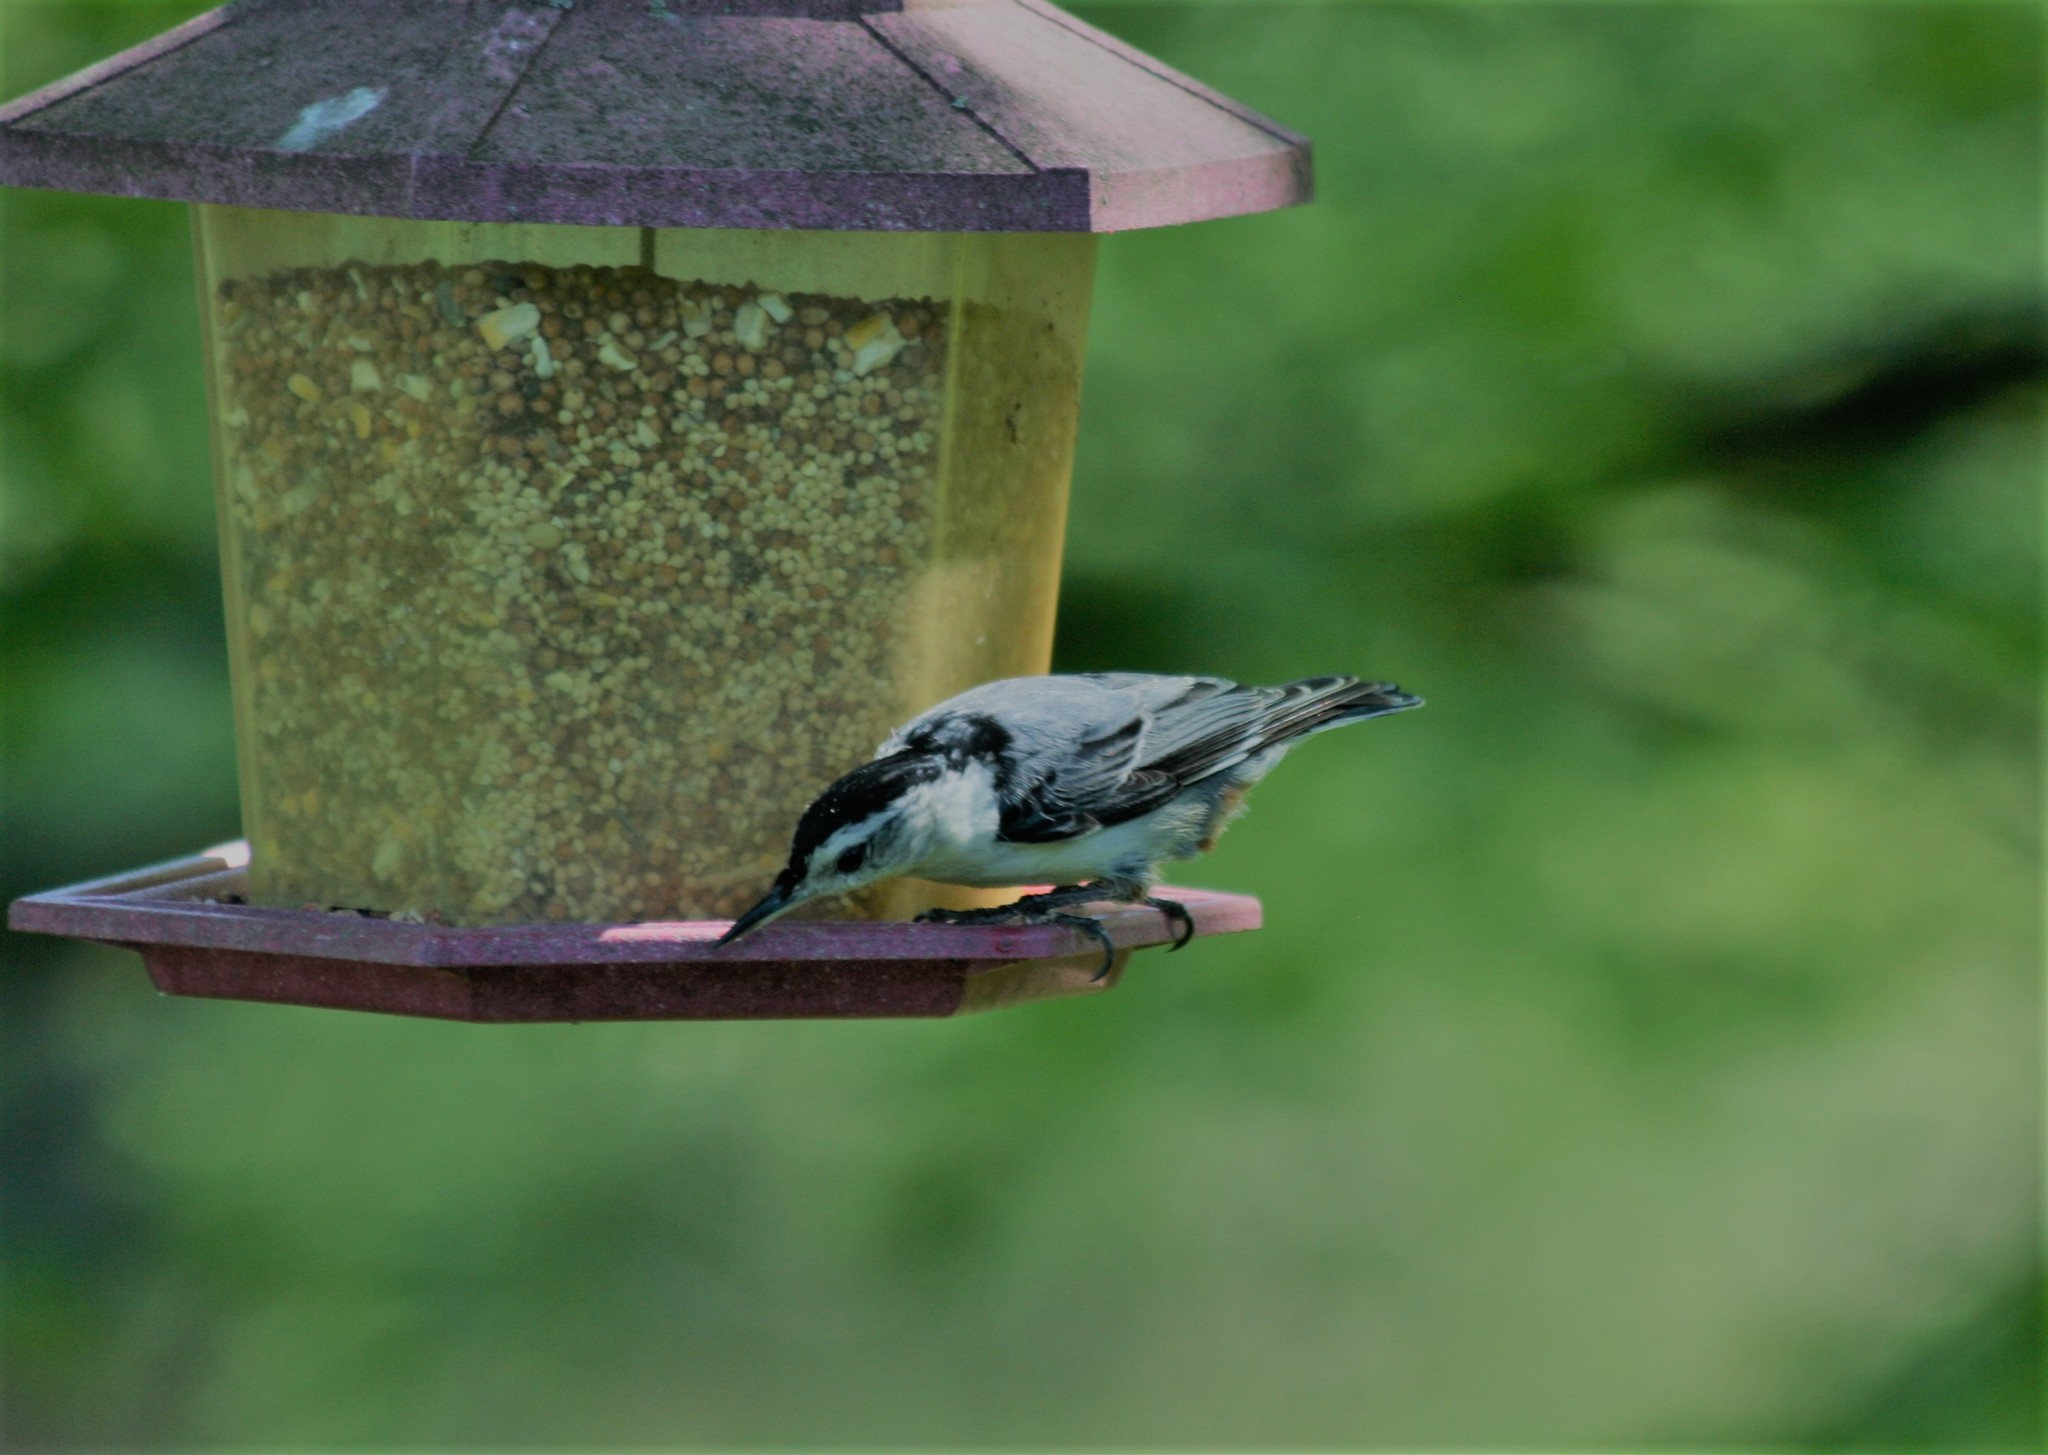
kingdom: Animalia
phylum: Chordata
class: Aves
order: Passeriformes
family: Sittidae
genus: Sitta
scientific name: Sitta carolinensis
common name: White-breasted nuthatch
